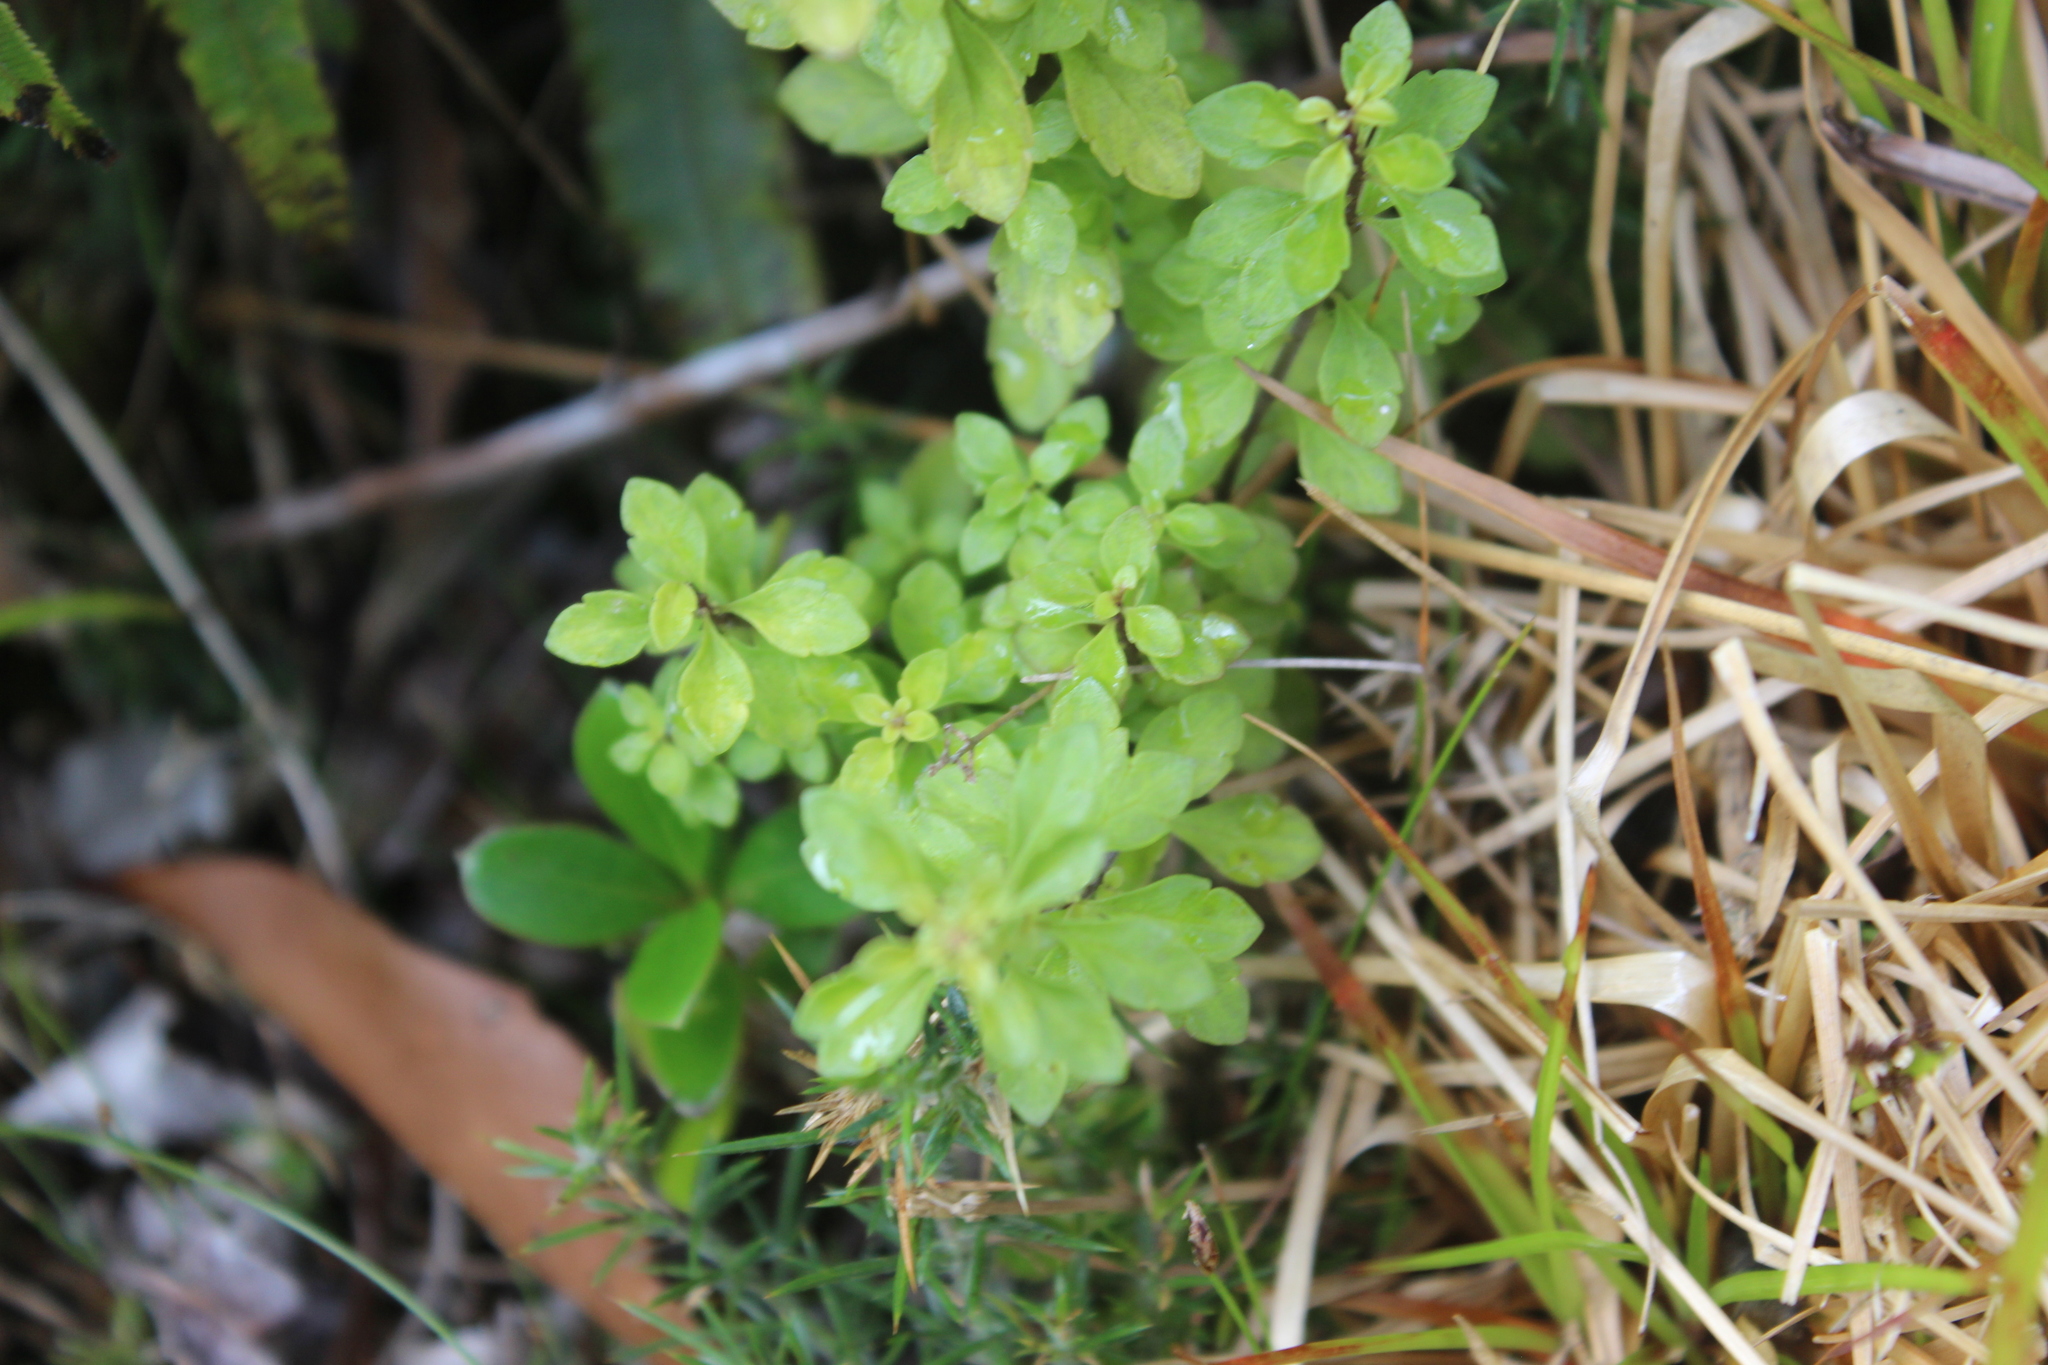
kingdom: Plantae
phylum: Tracheophyta
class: Magnoliopsida
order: Lamiales
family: Orobanchaceae
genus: Euphrasia
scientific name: Euphrasia cuneata
